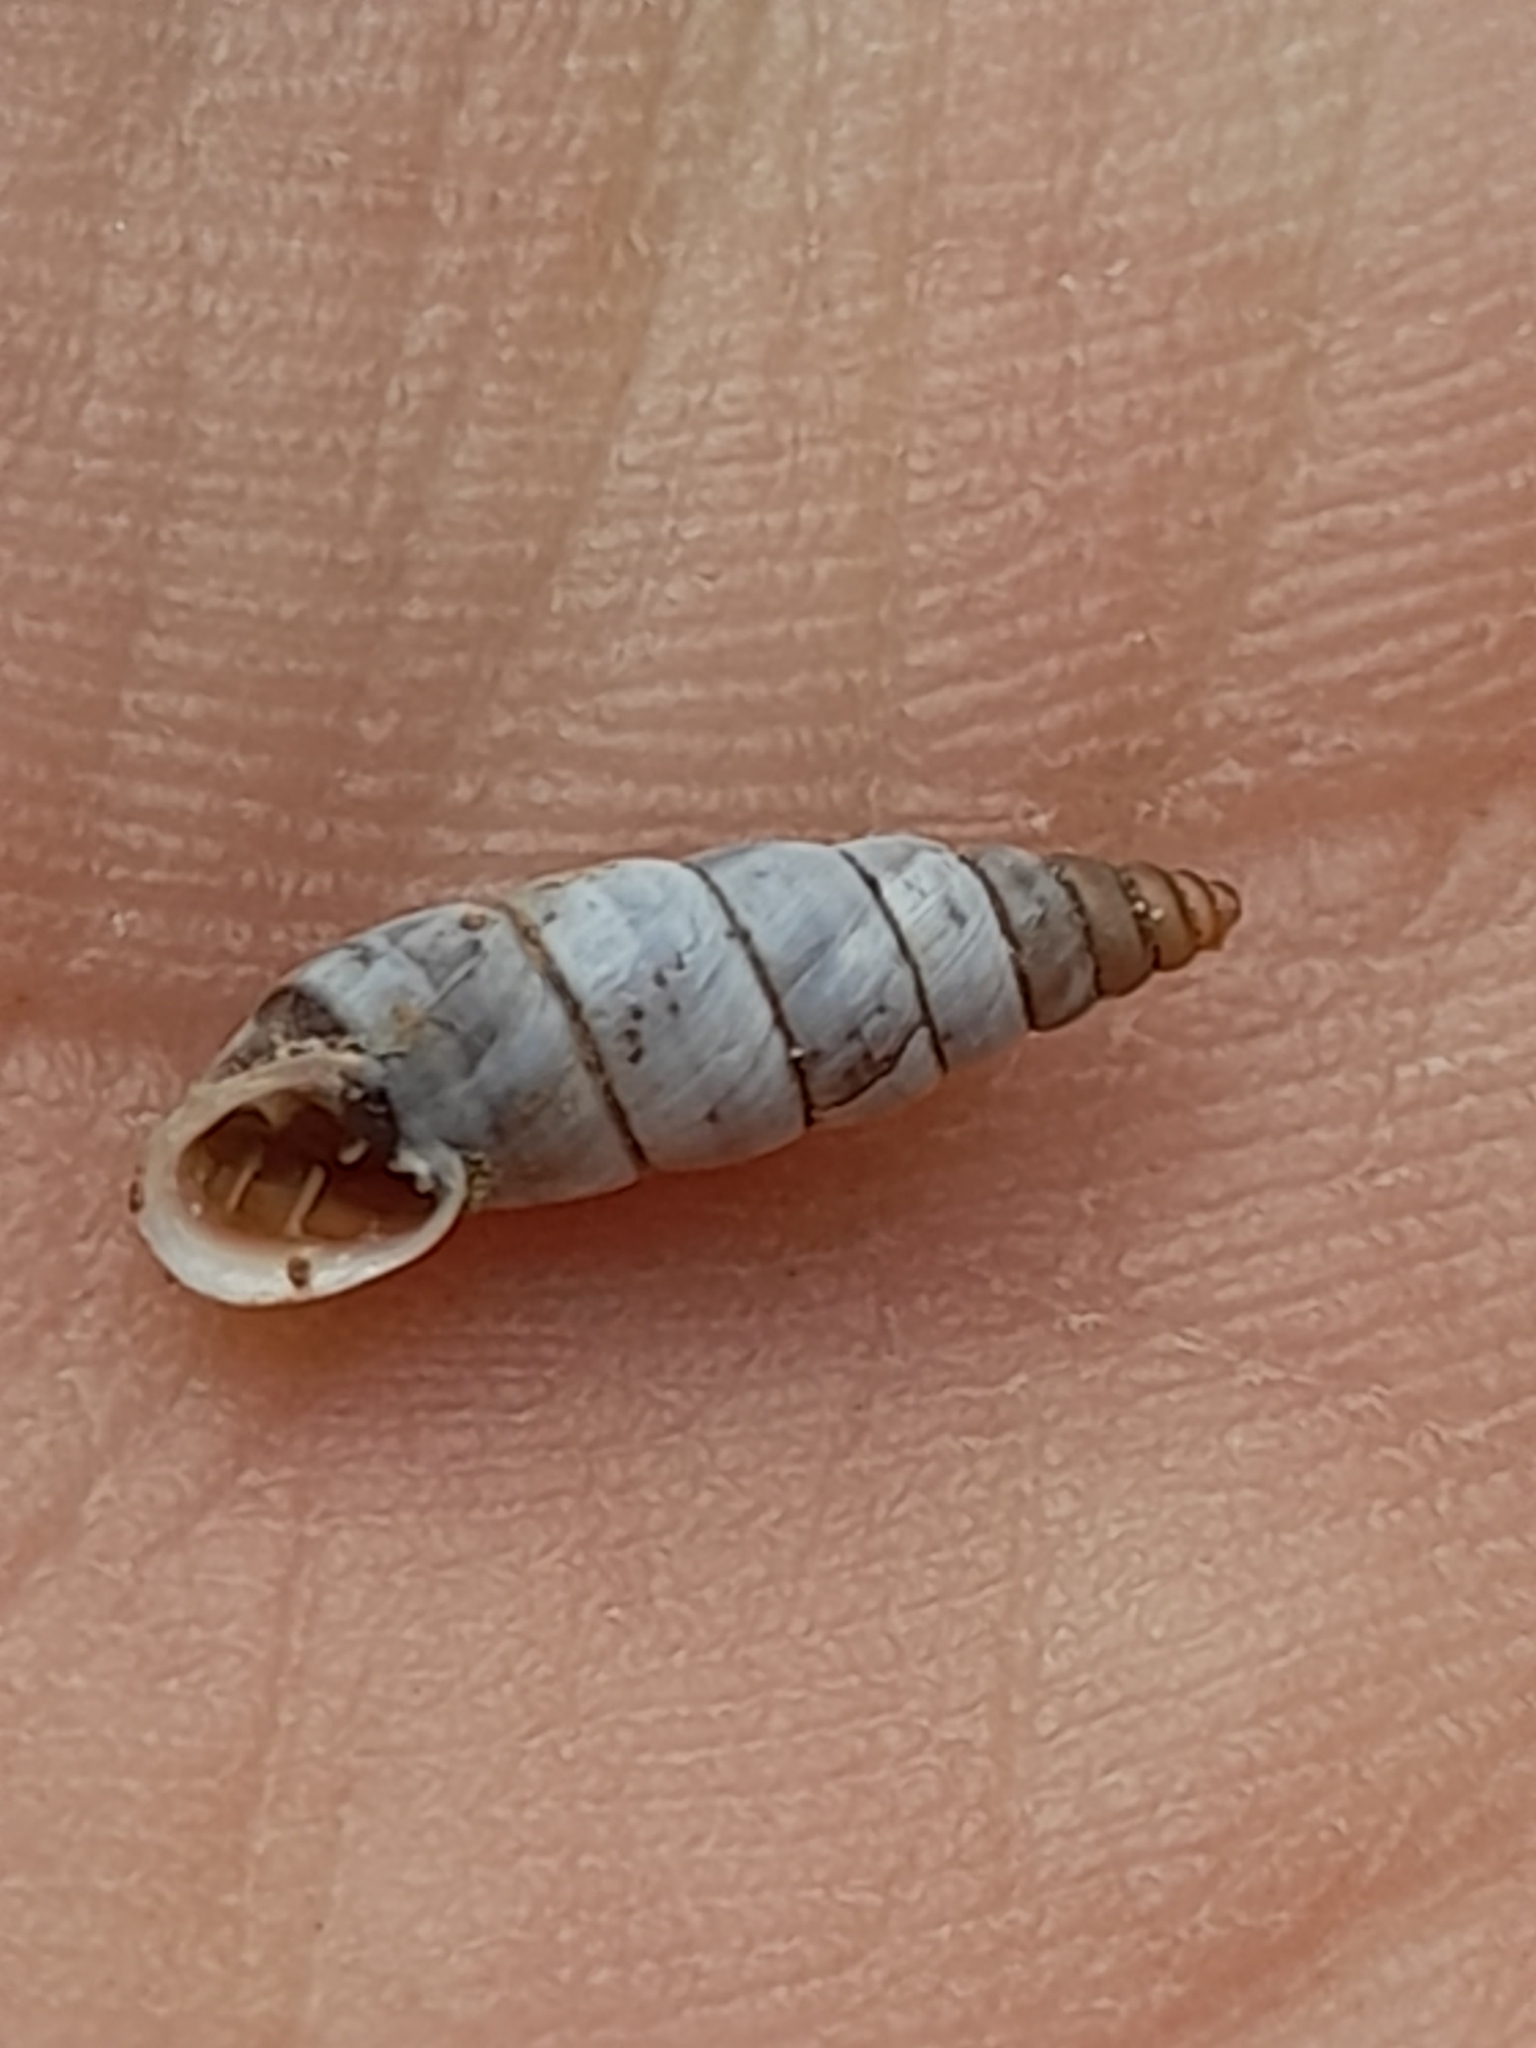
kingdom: Animalia
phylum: Mollusca
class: Gastropoda
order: Stylommatophora
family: Chondrinidae
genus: Solatopupa
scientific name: Solatopupa similis
